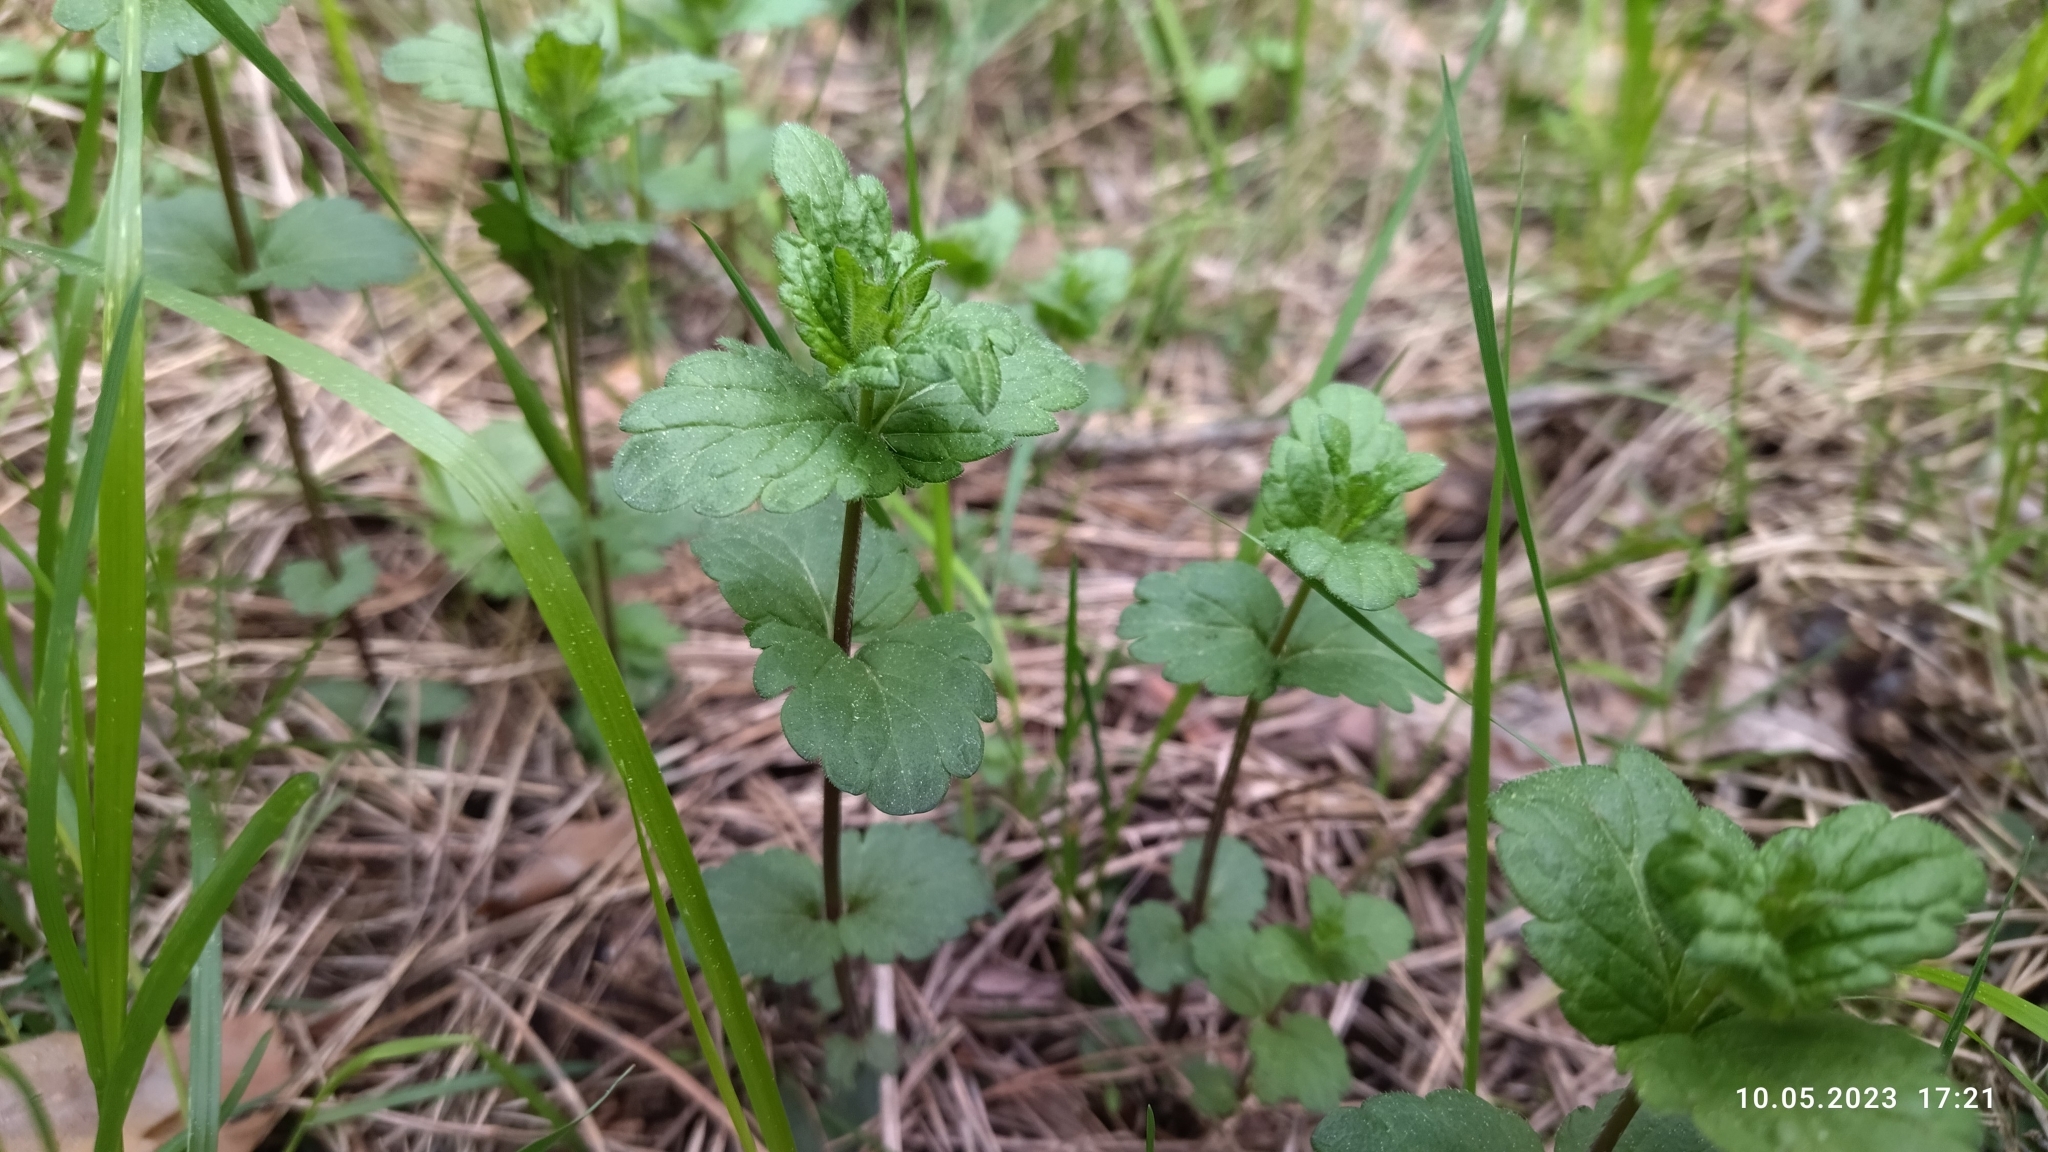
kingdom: Plantae
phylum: Tracheophyta
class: Magnoliopsida
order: Lamiales
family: Plantaginaceae
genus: Veronica
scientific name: Veronica chamaedrys
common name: Germander speedwell
